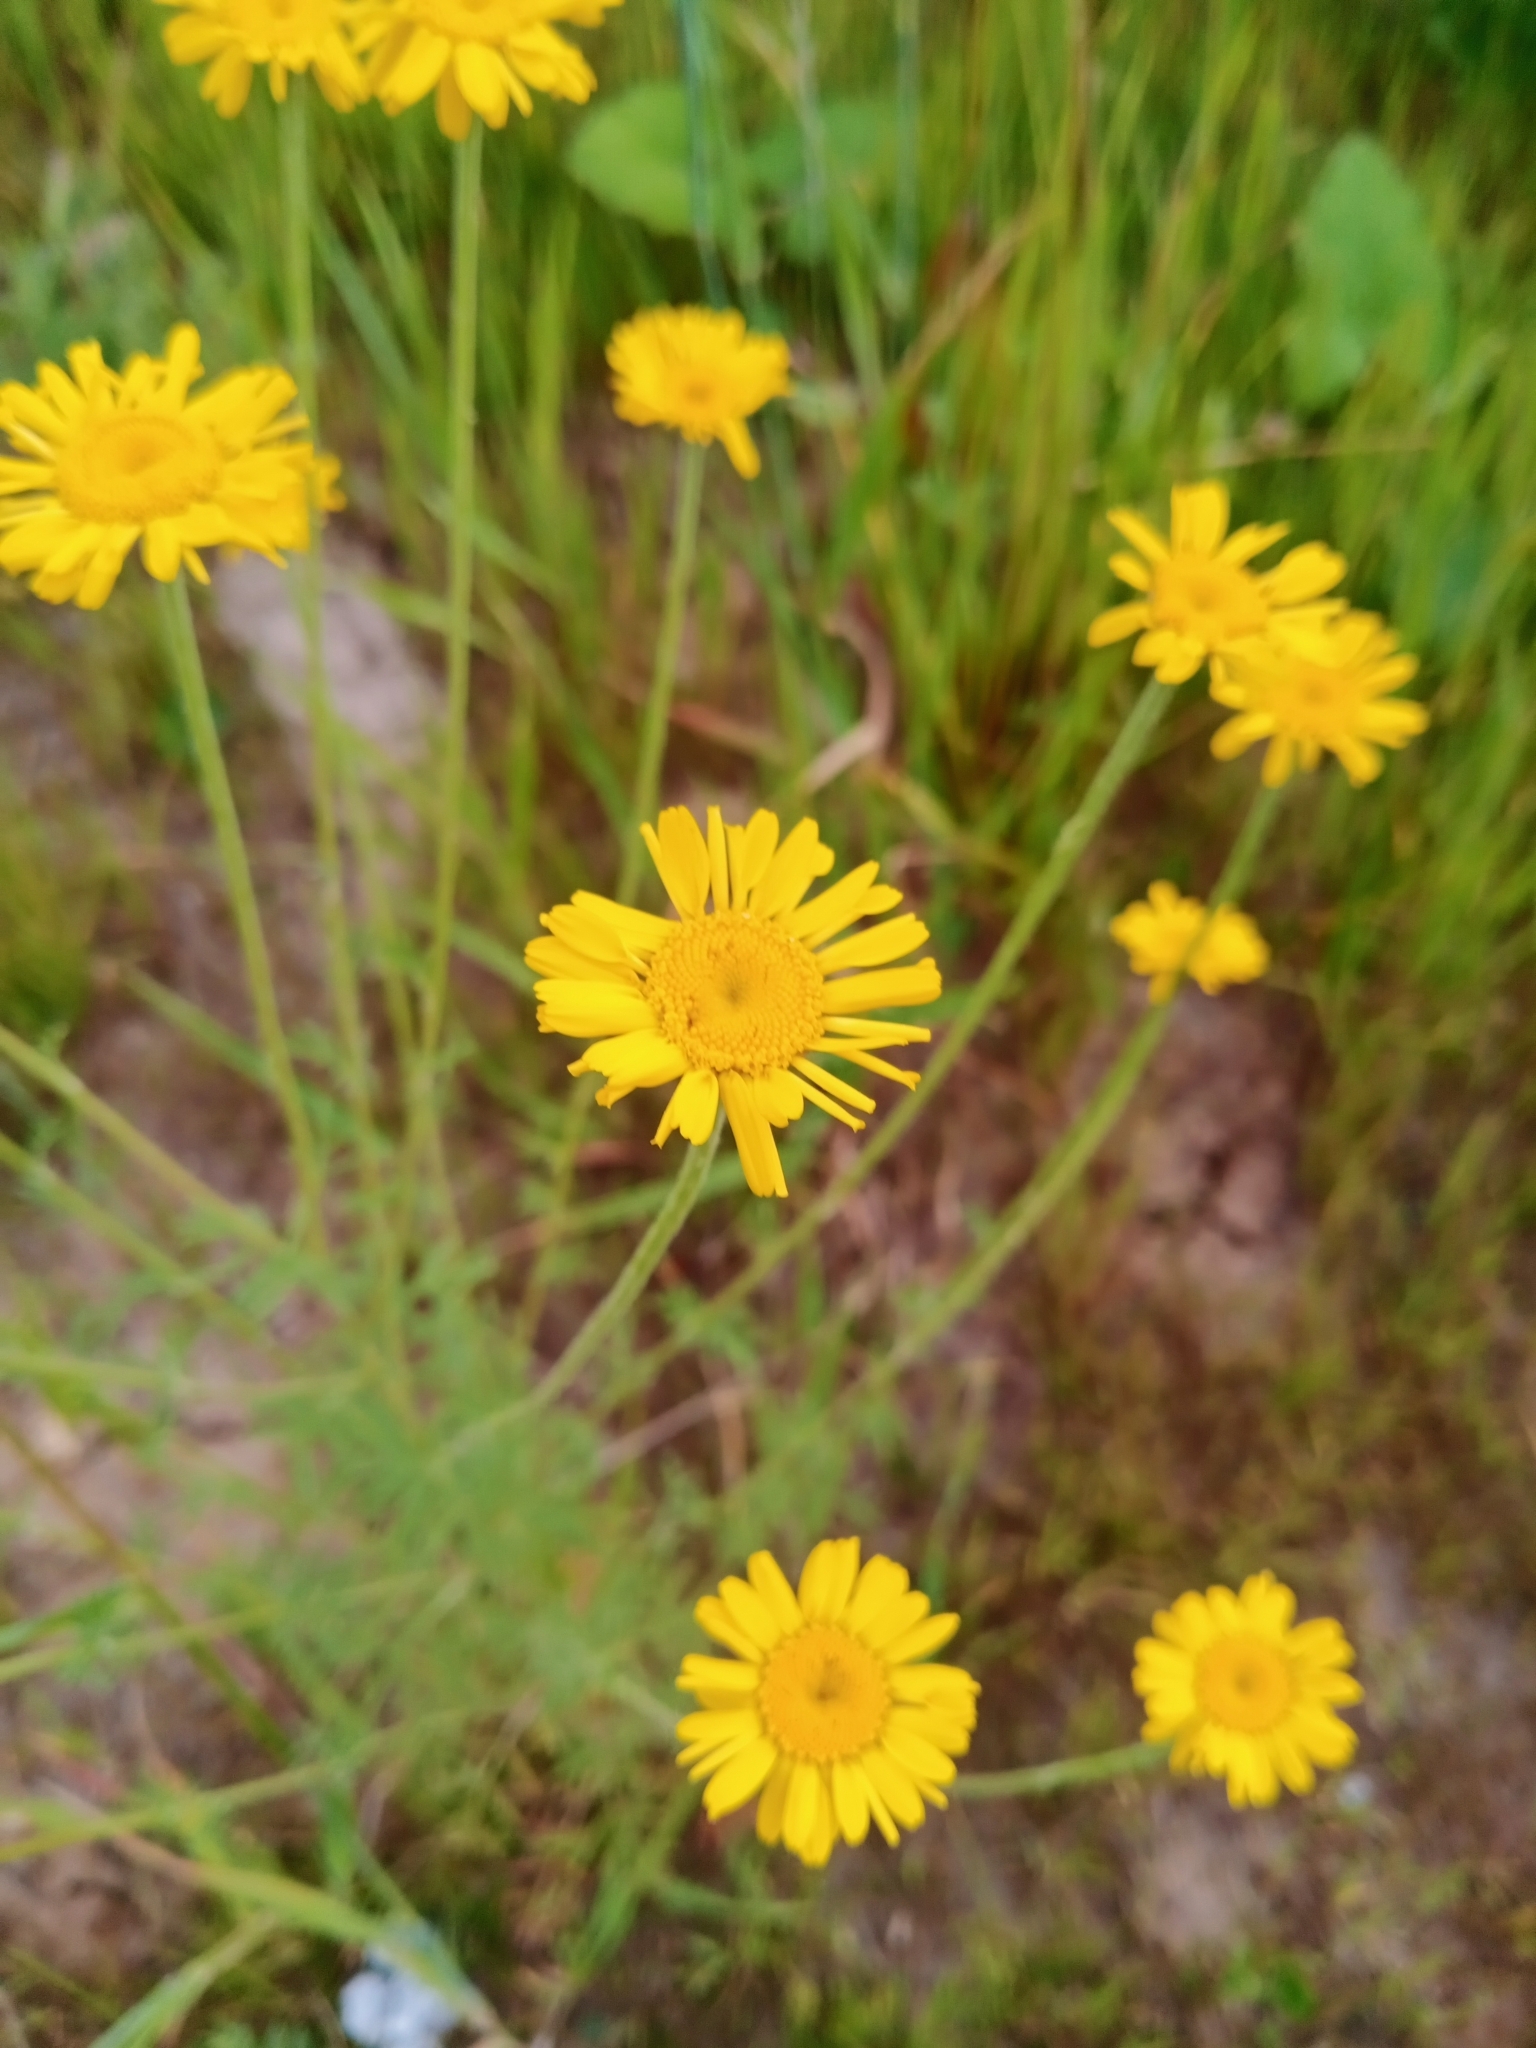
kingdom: Plantae
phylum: Tracheophyta
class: Magnoliopsida
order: Asterales
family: Asteraceae
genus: Cota
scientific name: Cota tinctoria
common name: Golden chamomile
